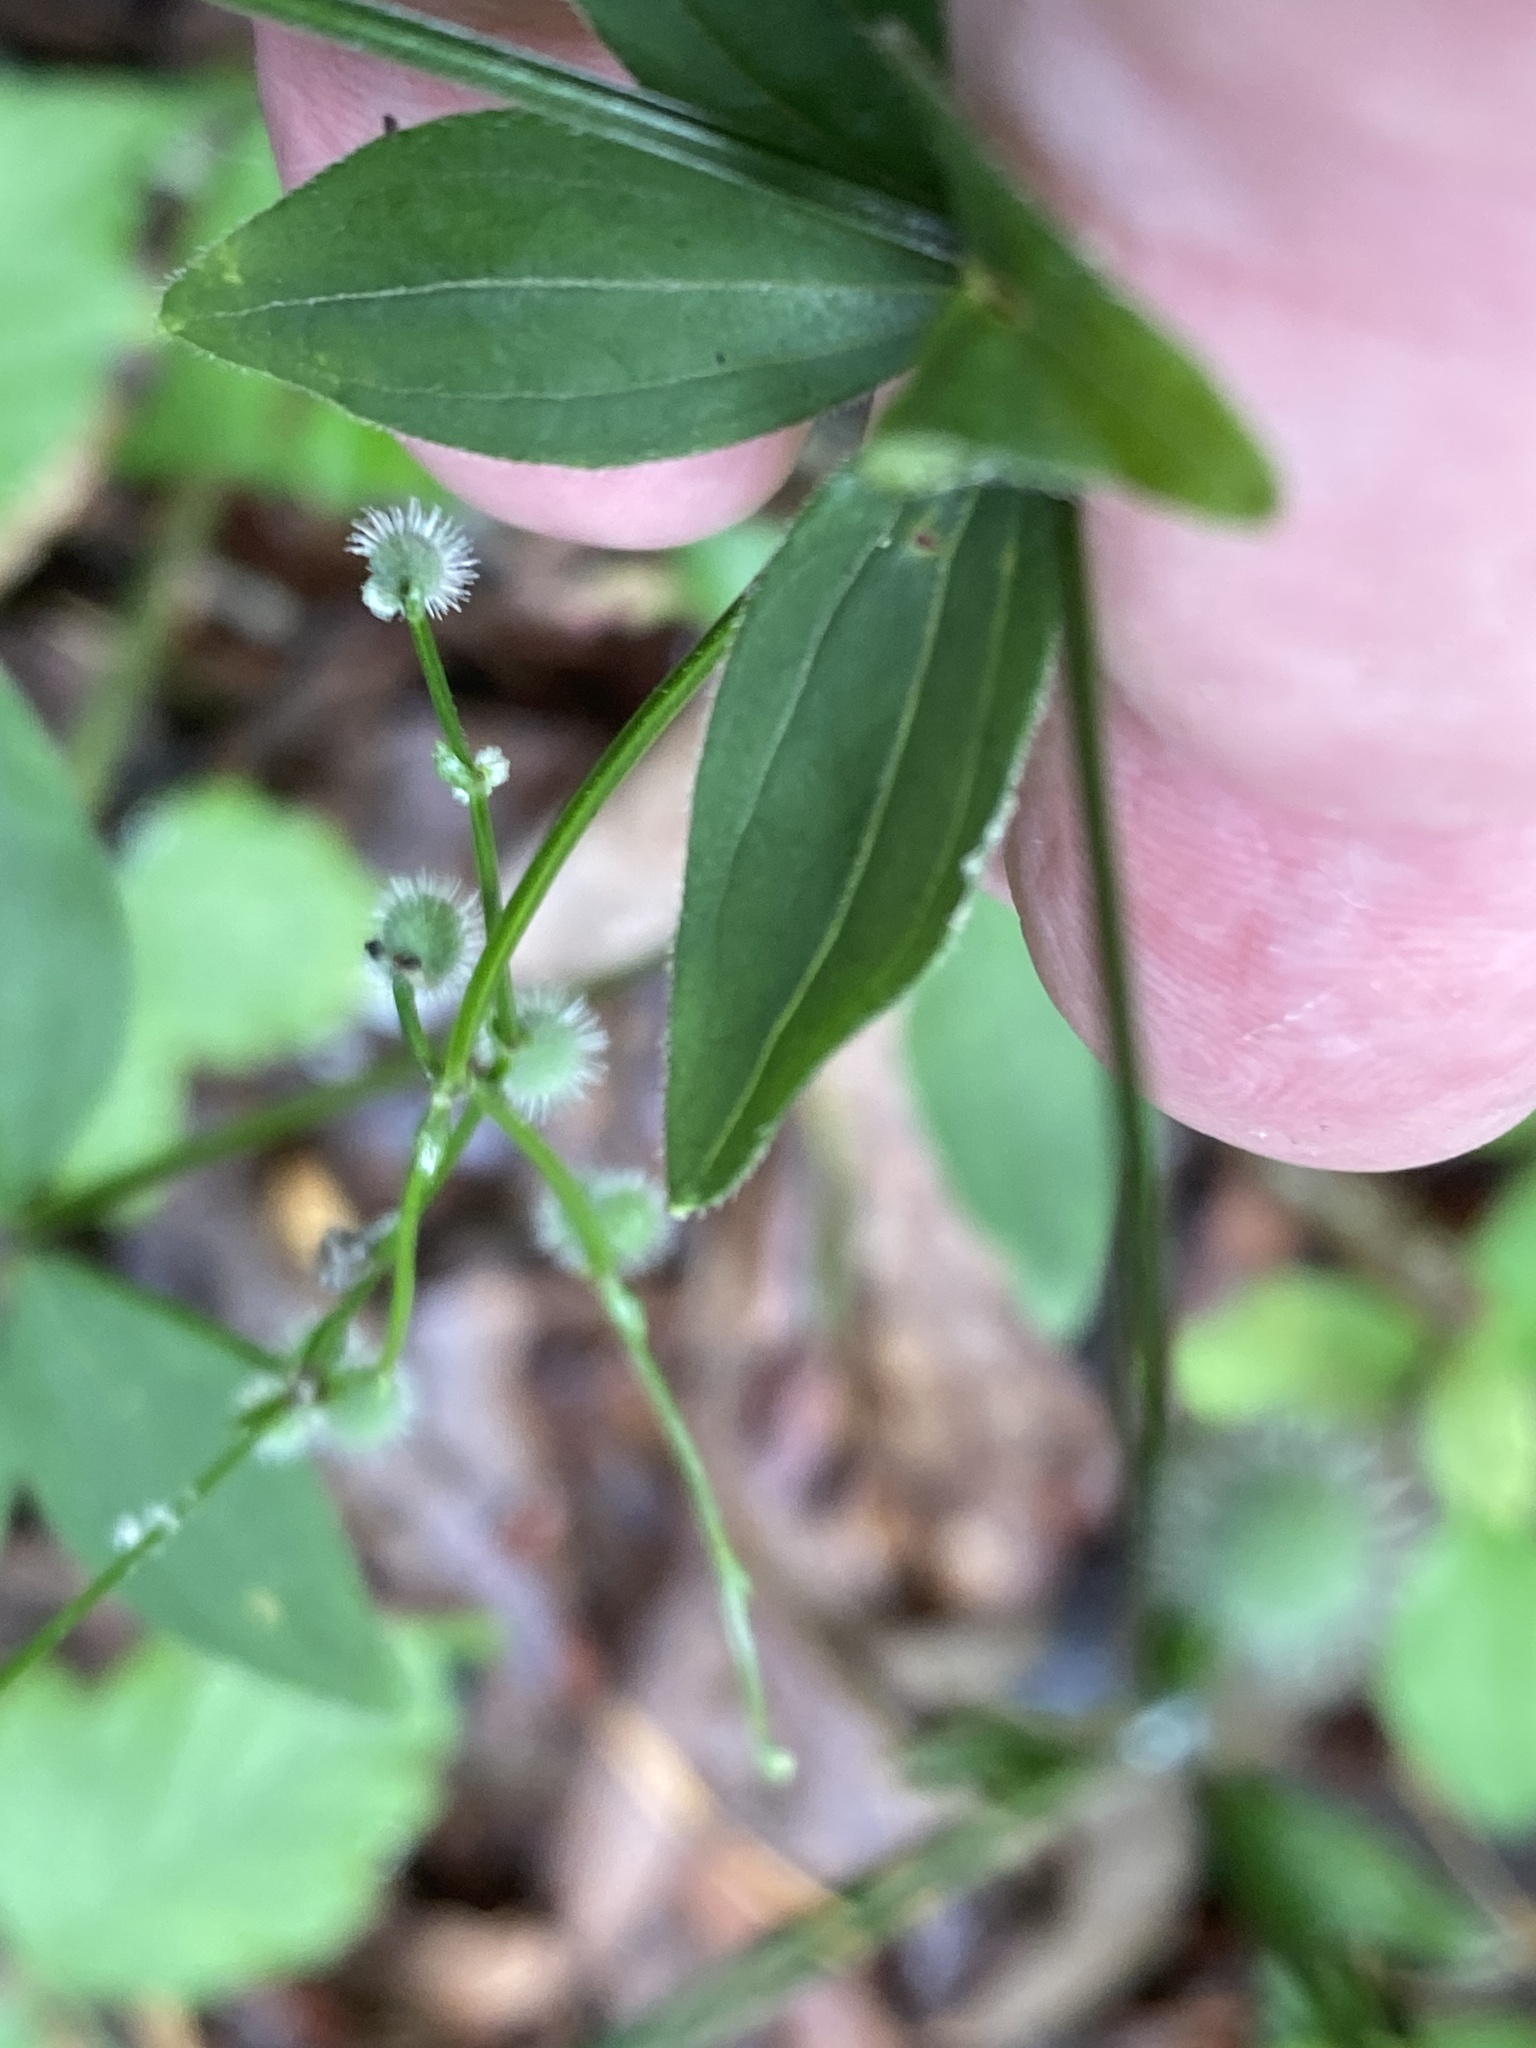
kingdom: Plantae
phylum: Tracheophyta
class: Magnoliopsida
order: Gentianales
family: Rubiaceae
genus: Galium
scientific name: Galium circaezans
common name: Forest bedstraw
